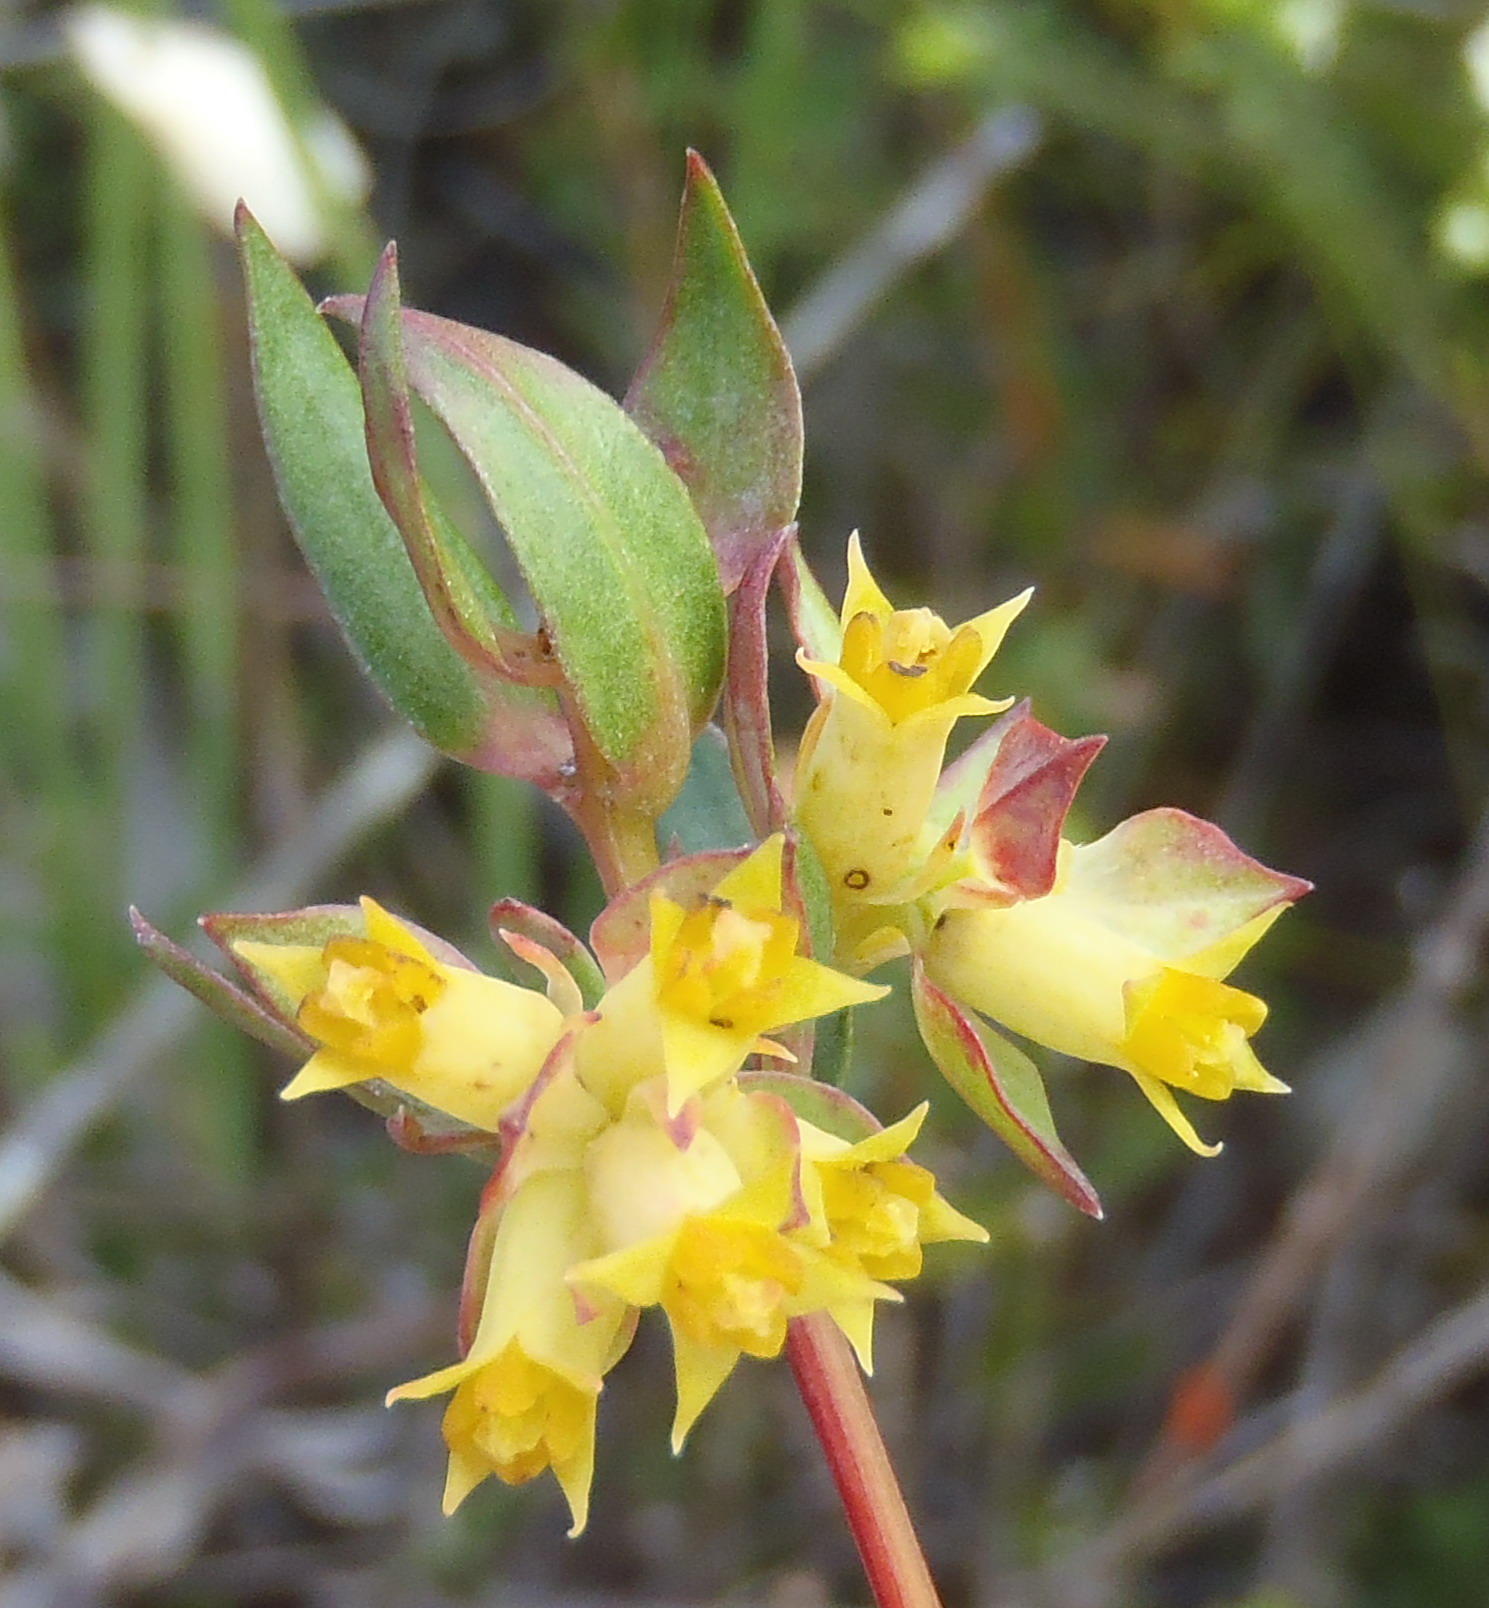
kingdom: Plantae
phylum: Tracheophyta
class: Magnoliopsida
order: Myrtales
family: Penaeaceae
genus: Penaea
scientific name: Penaea acutifolia
